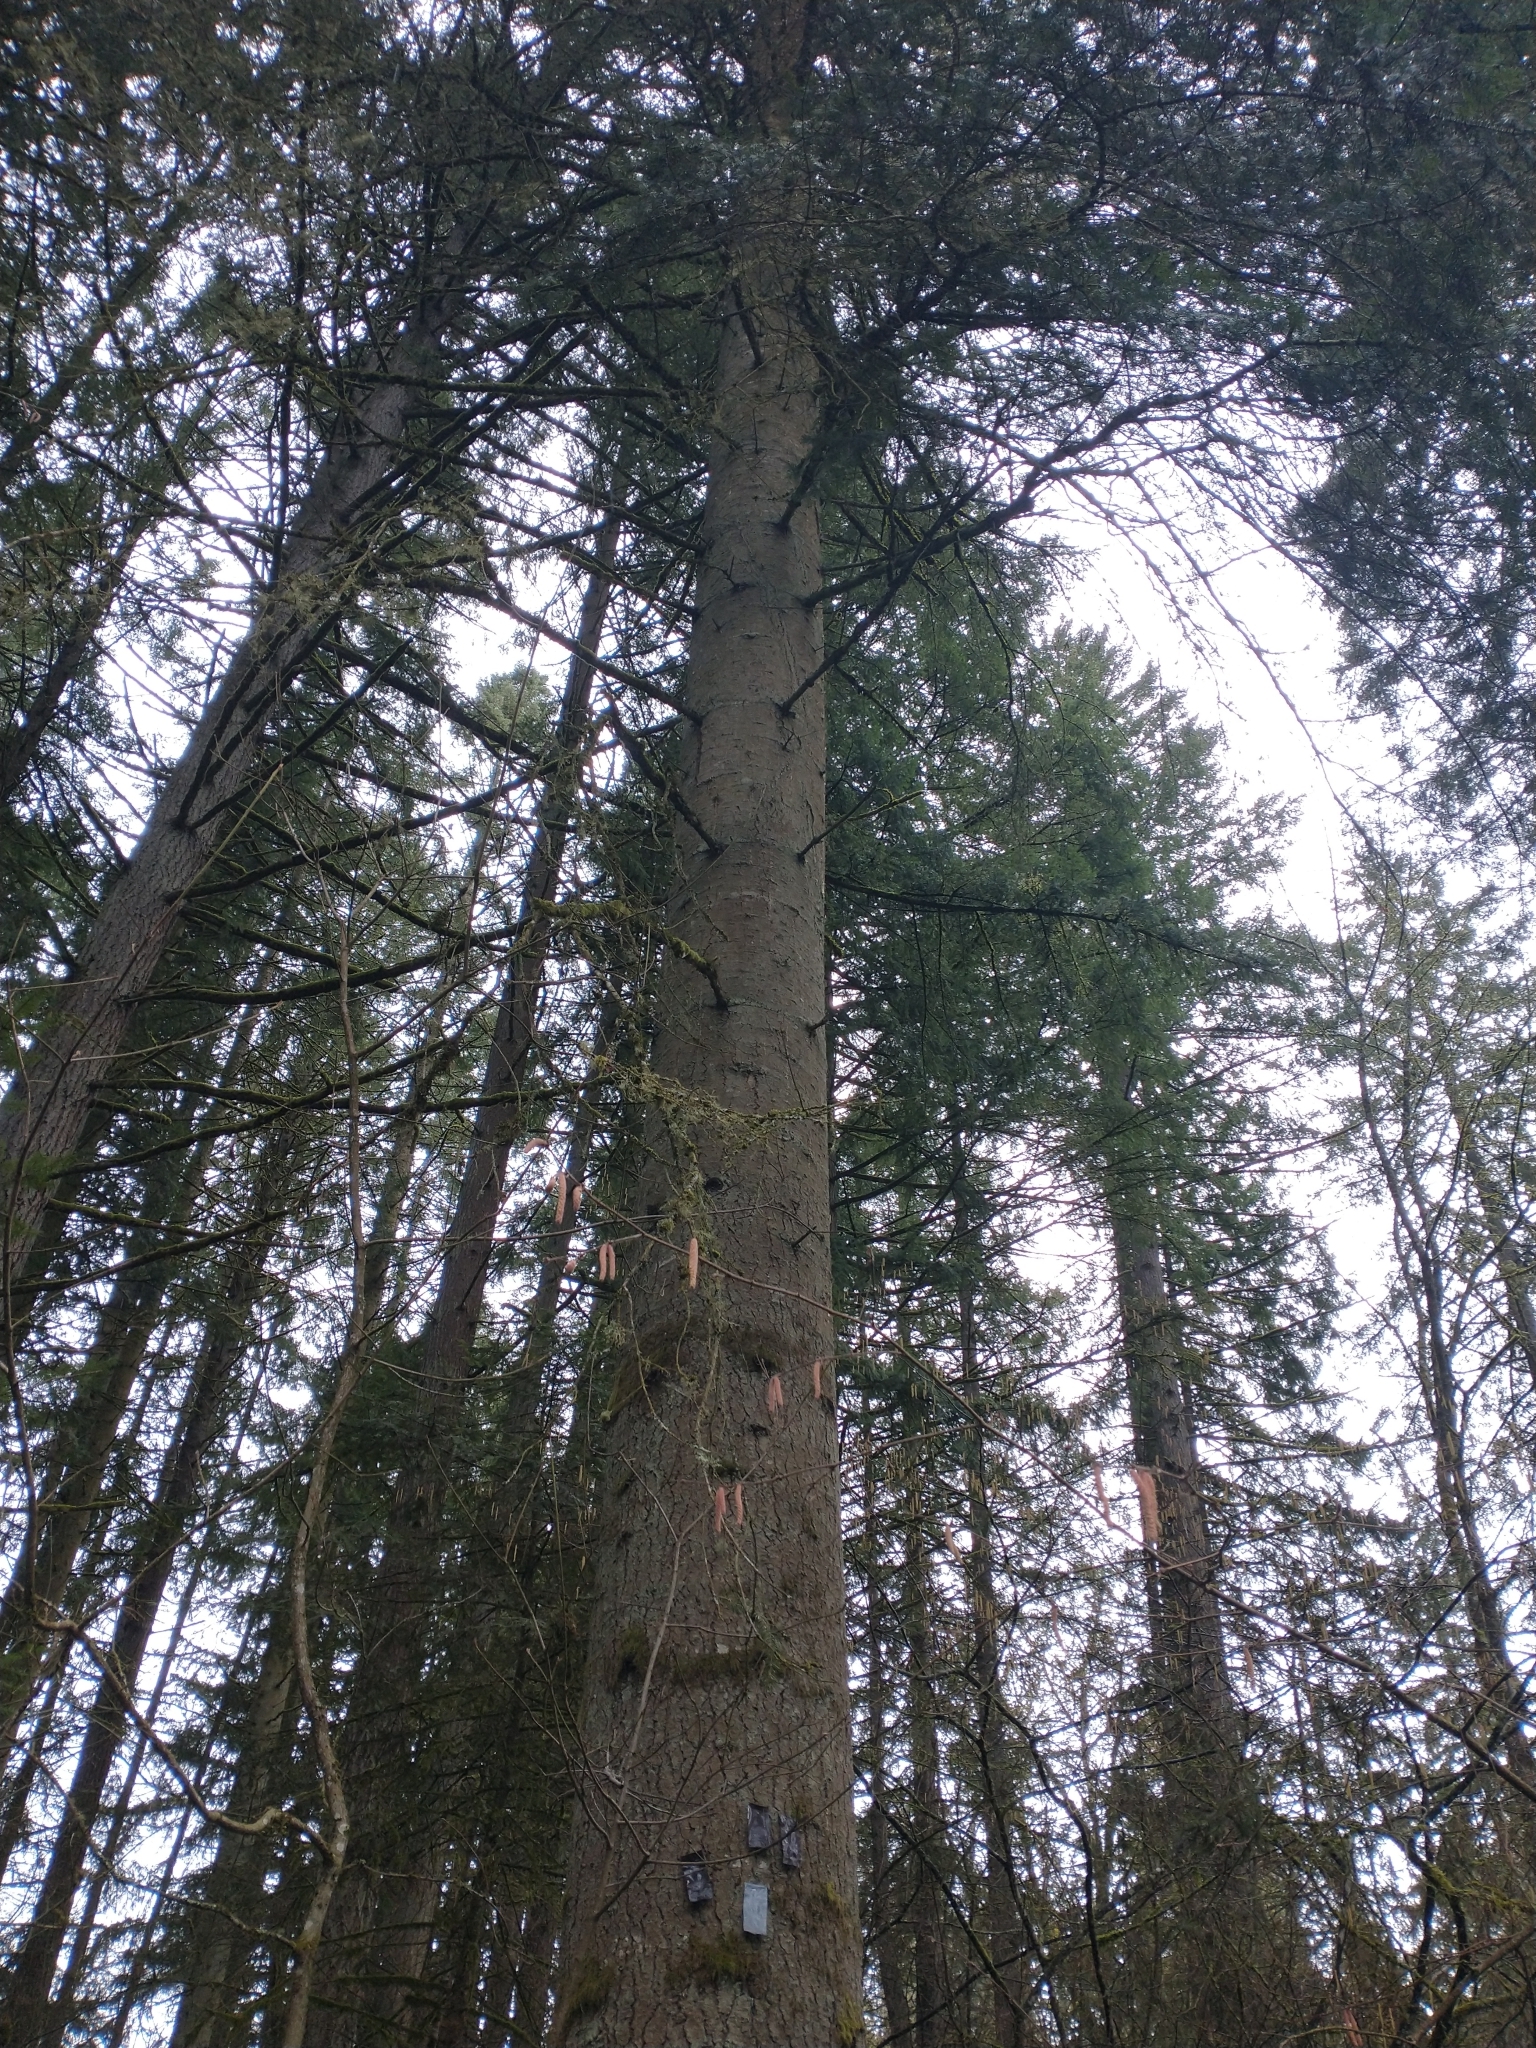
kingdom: Plantae
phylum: Tracheophyta
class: Pinopsida
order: Pinales
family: Pinaceae
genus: Abies
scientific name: Abies grandis
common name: Giant fir
